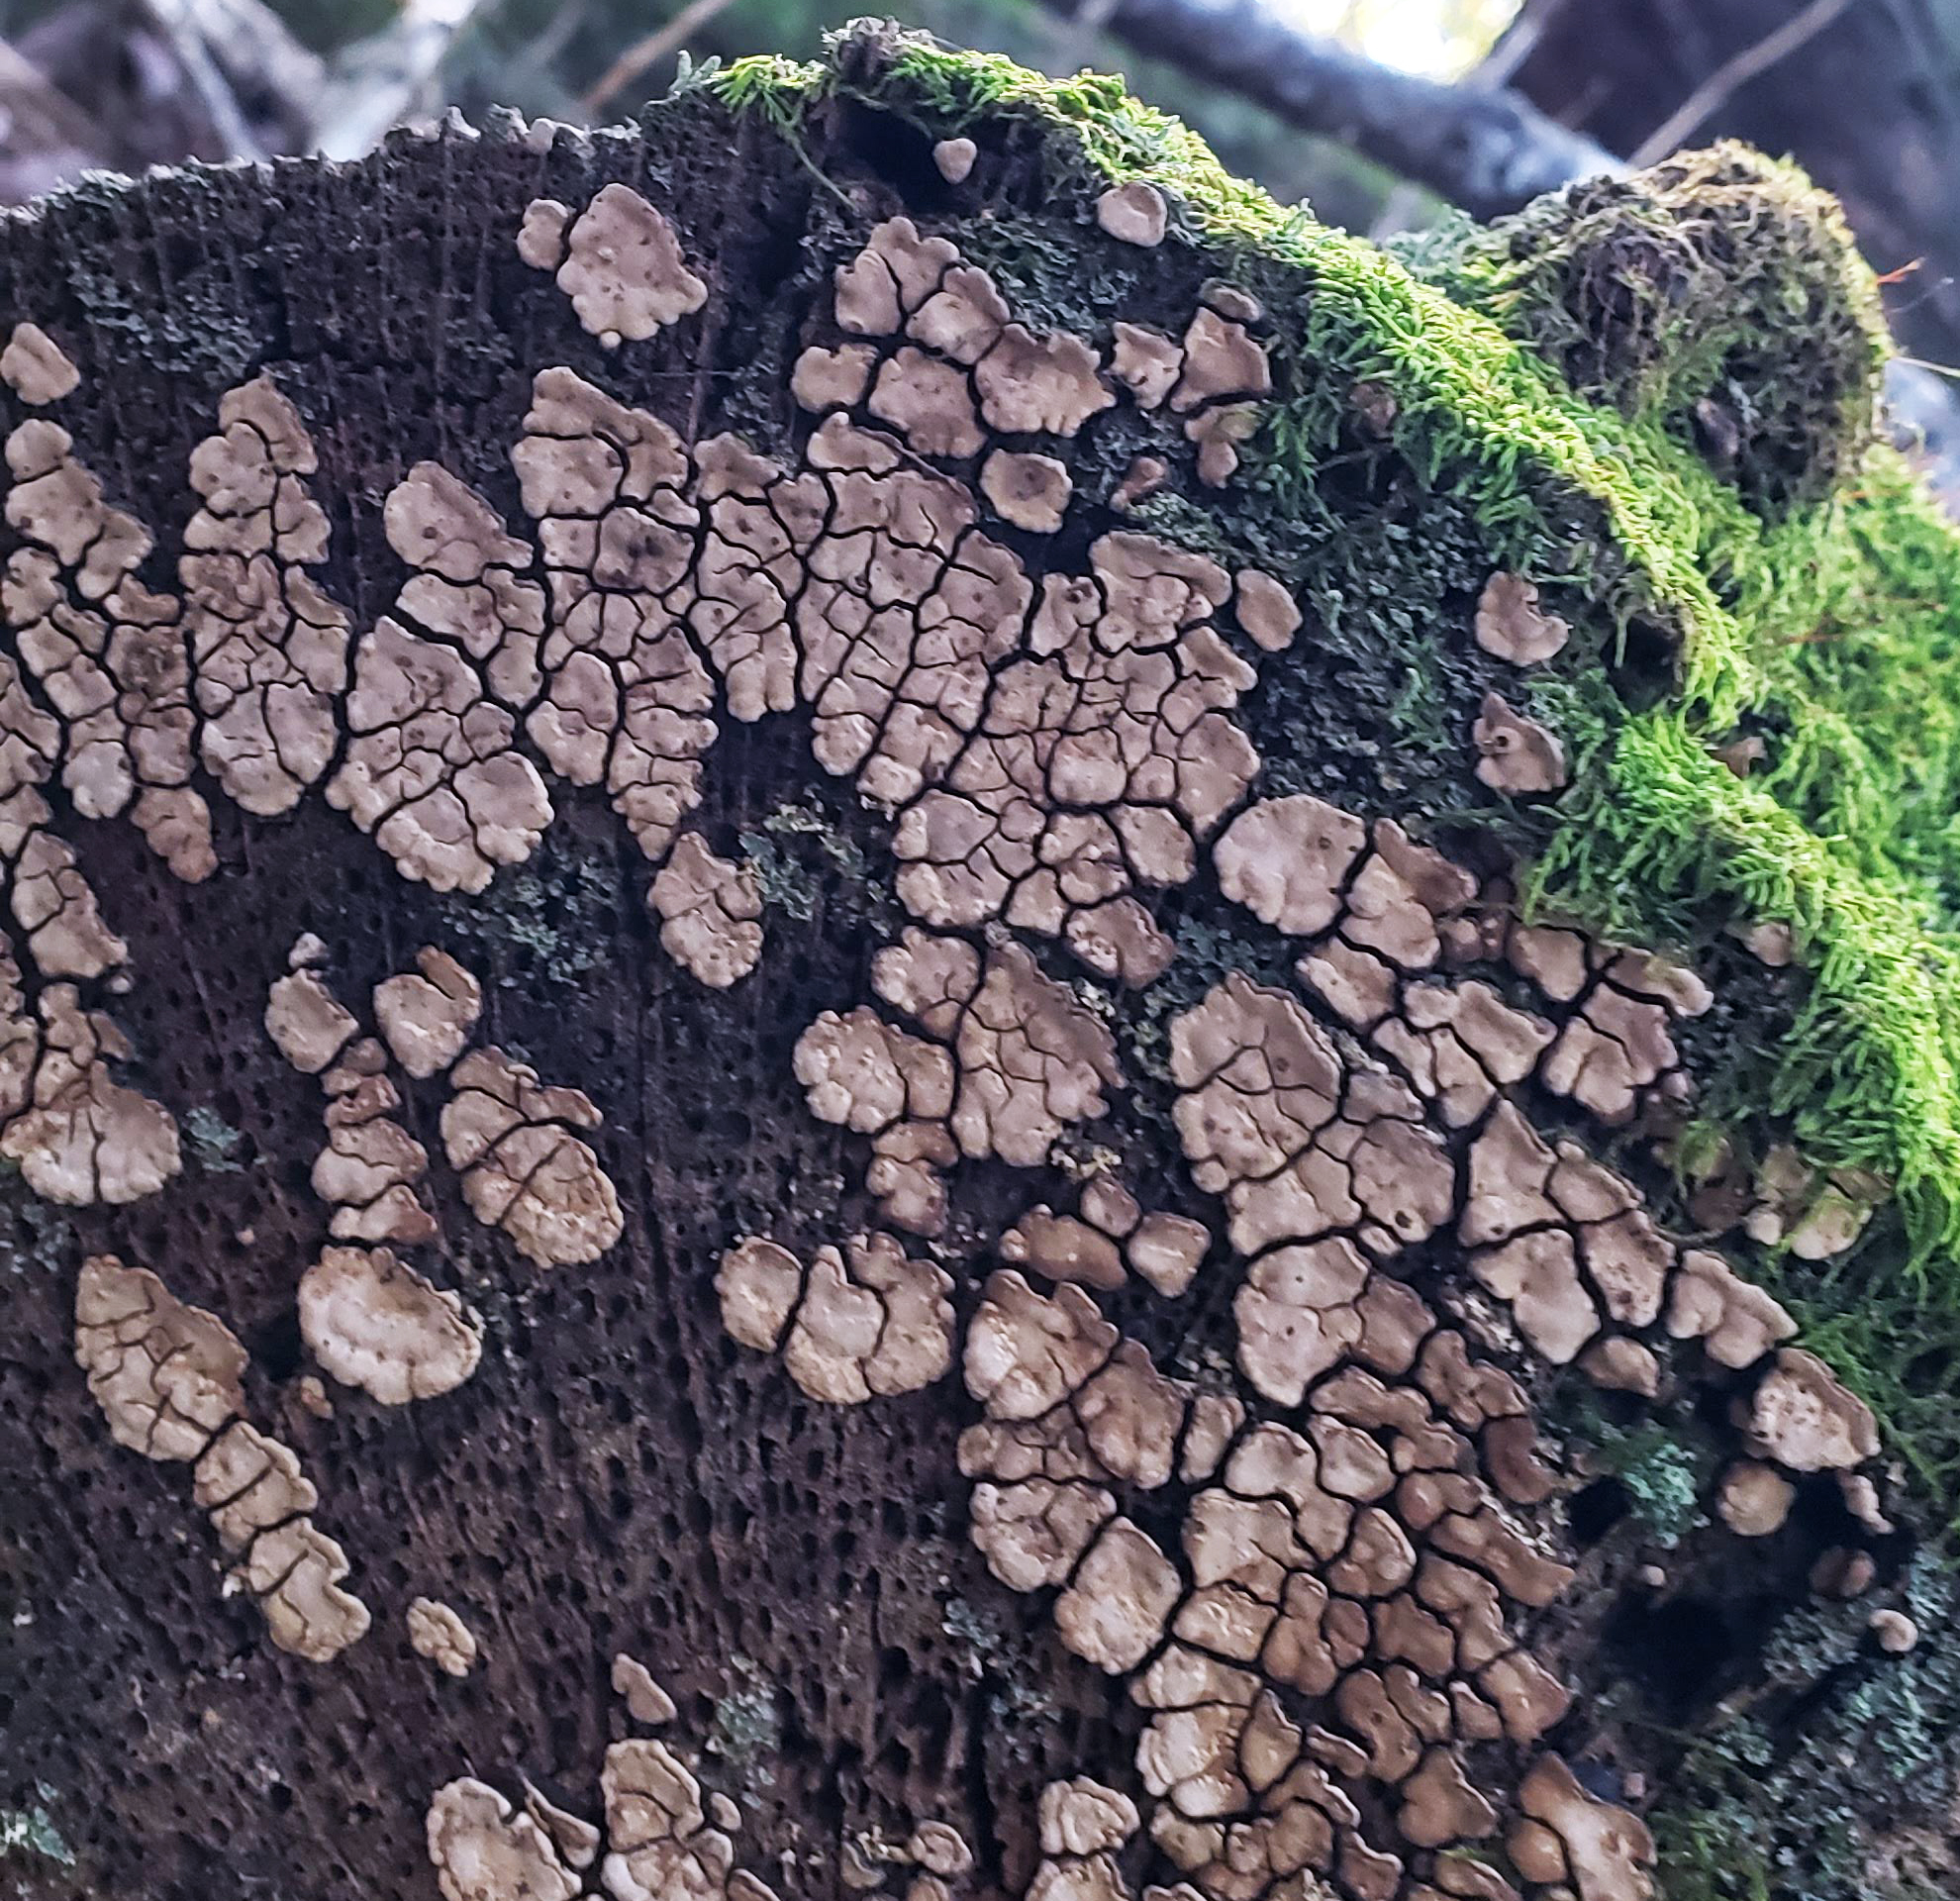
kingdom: Fungi
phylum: Basidiomycota
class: Agaricomycetes
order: Russulales
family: Stereaceae
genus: Xylobolus
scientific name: Xylobolus frustulatus
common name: Ceramic parchment
